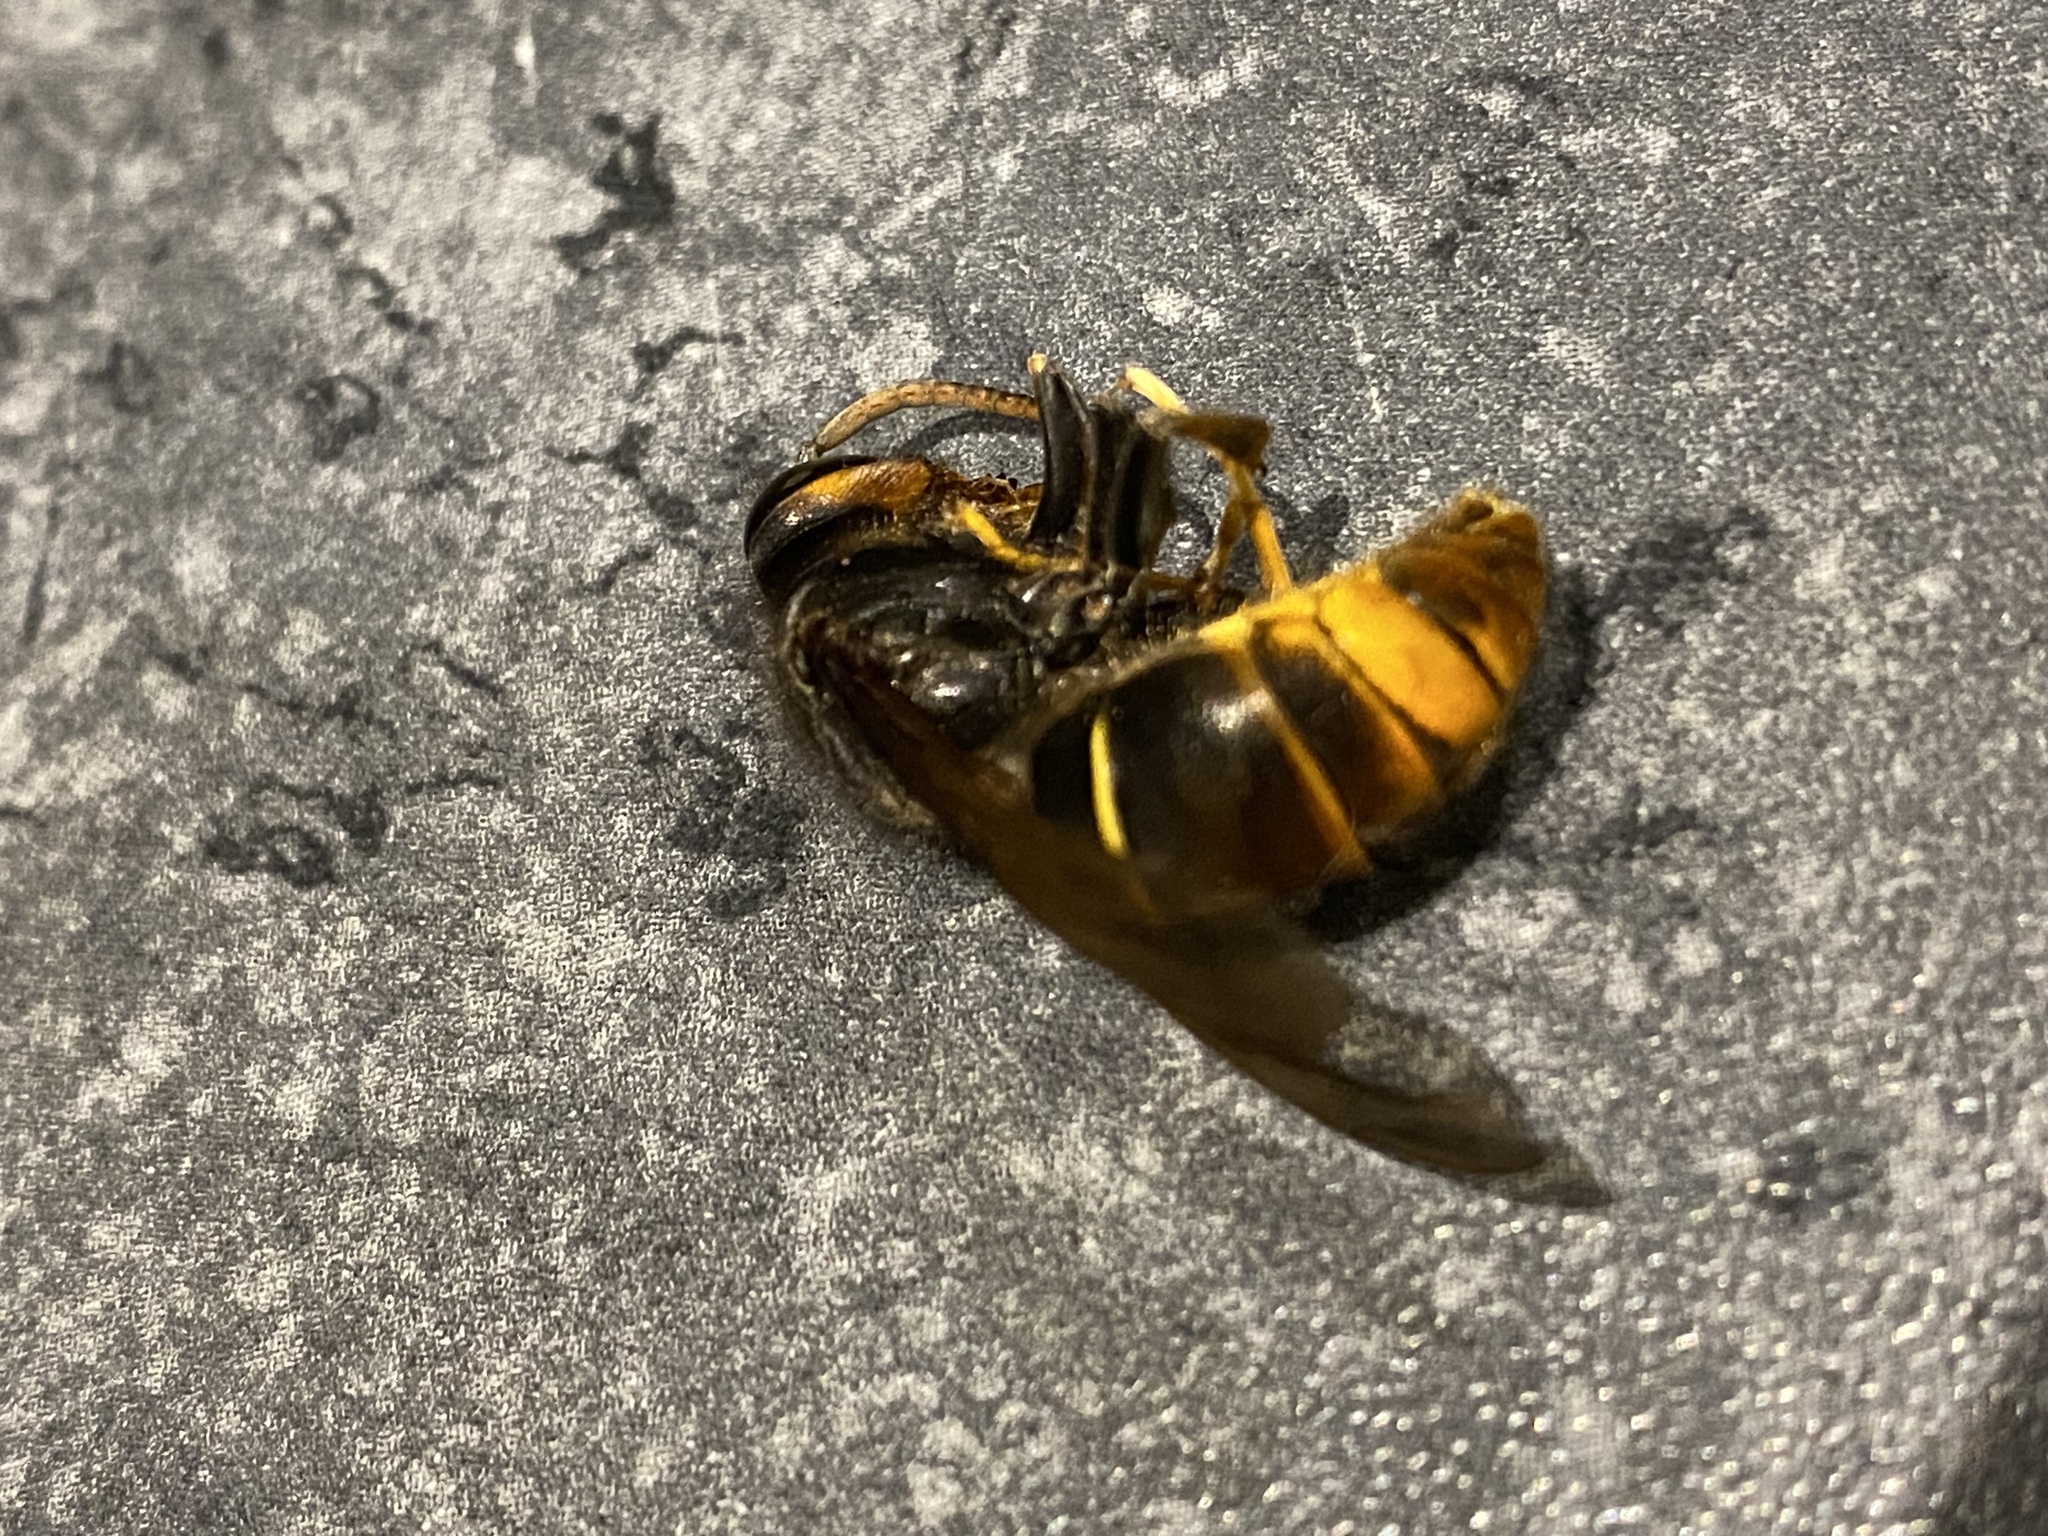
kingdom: Animalia
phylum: Arthropoda
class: Insecta
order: Hymenoptera
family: Vespidae
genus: Vespa
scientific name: Vespa velutina
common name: Asian hornet
